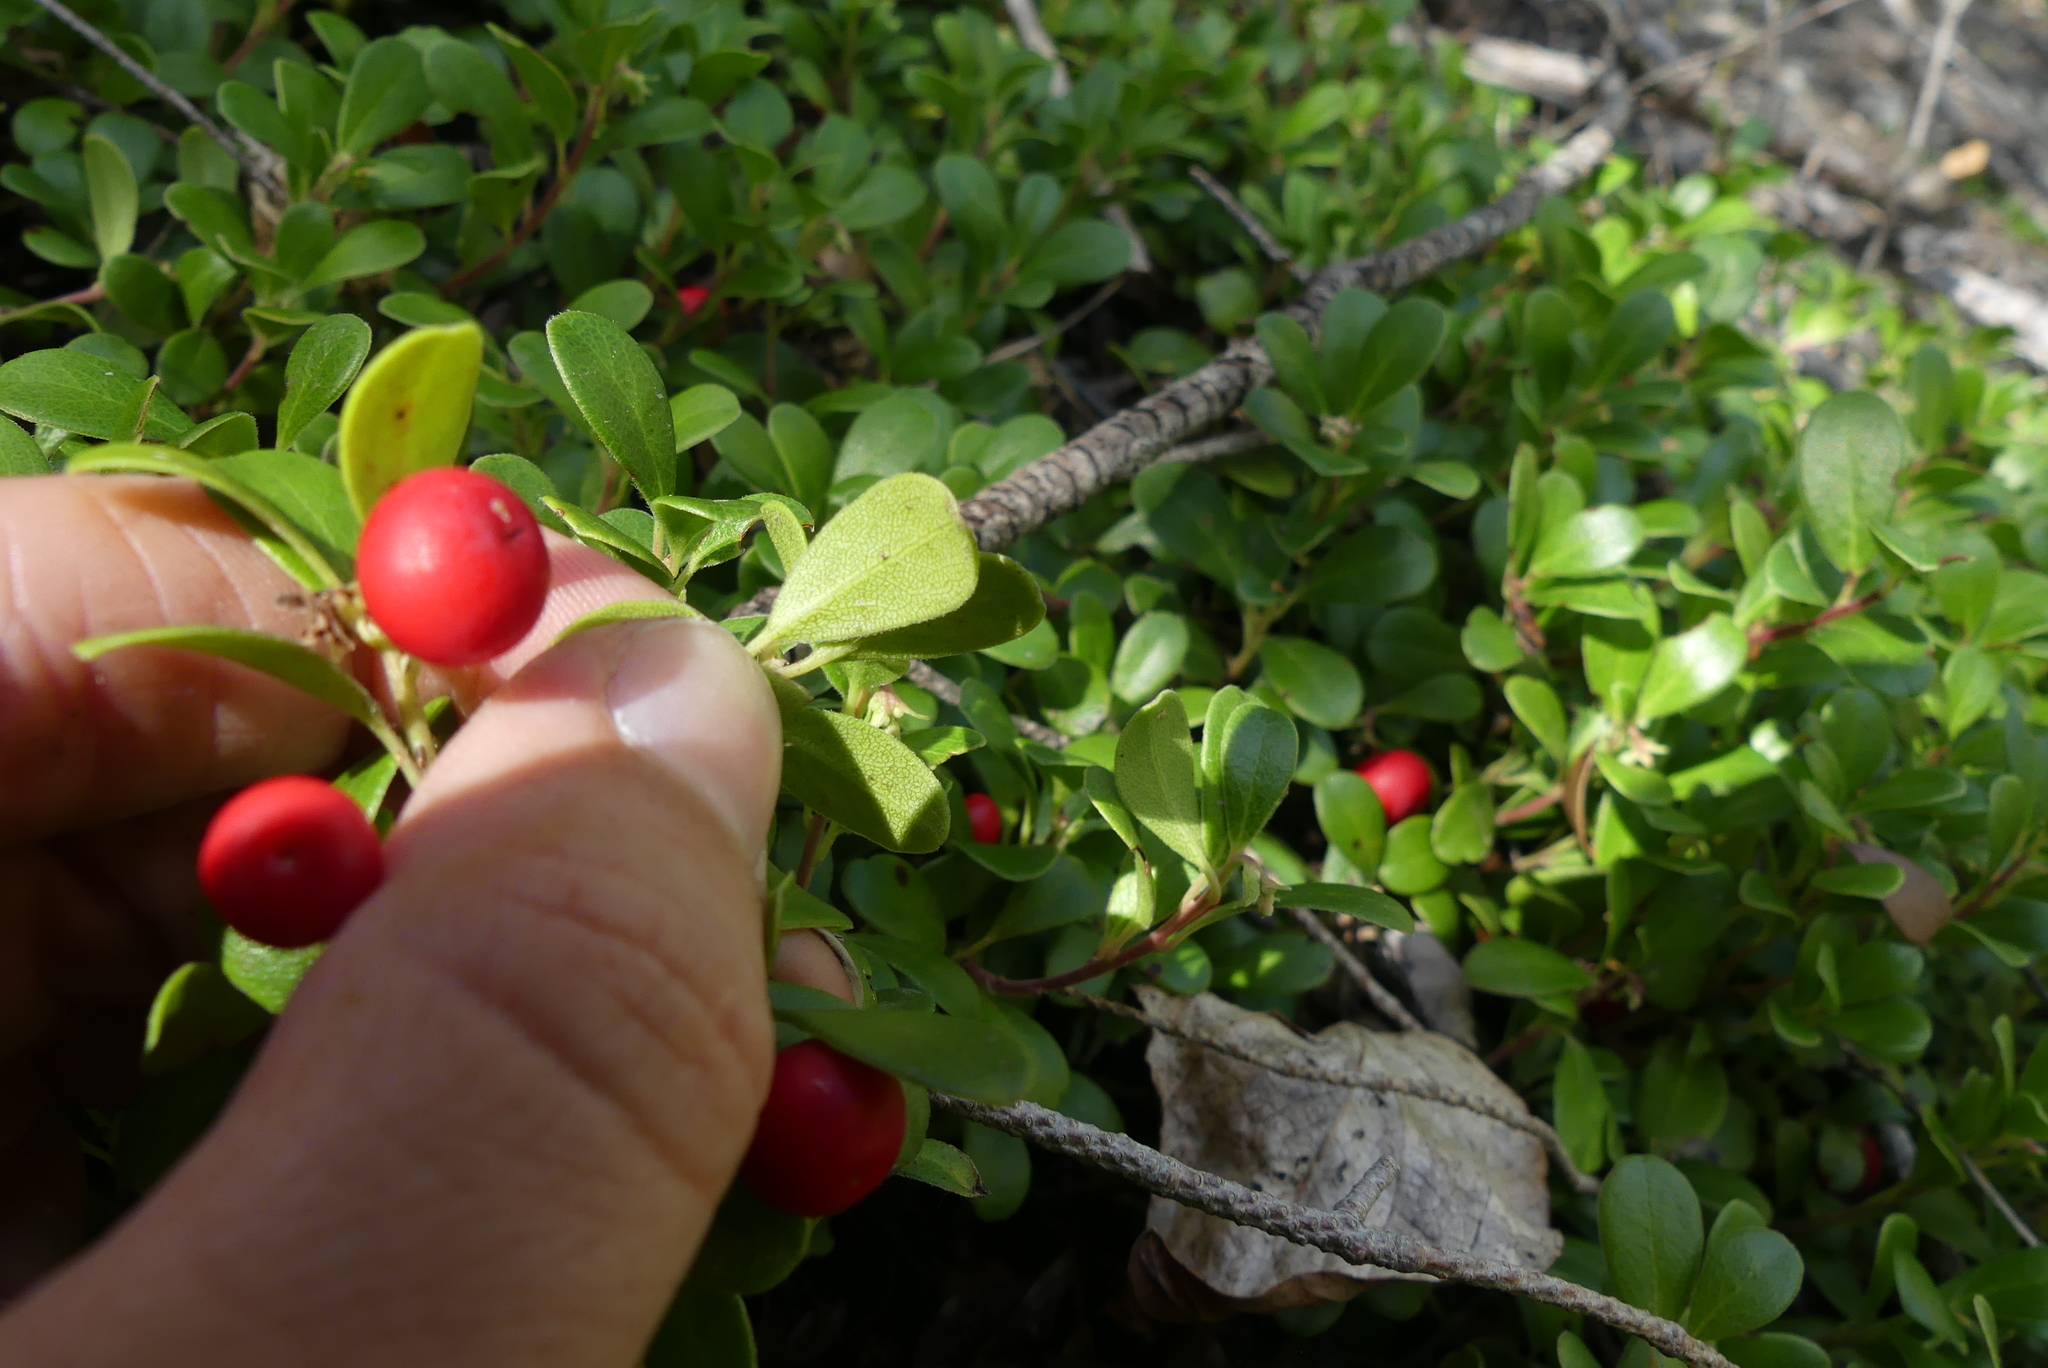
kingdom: Plantae
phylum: Tracheophyta
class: Magnoliopsida
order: Ericales
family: Ericaceae
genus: Arctostaphylos
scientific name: Arctostaphylos uva-ursi
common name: Bearberry
